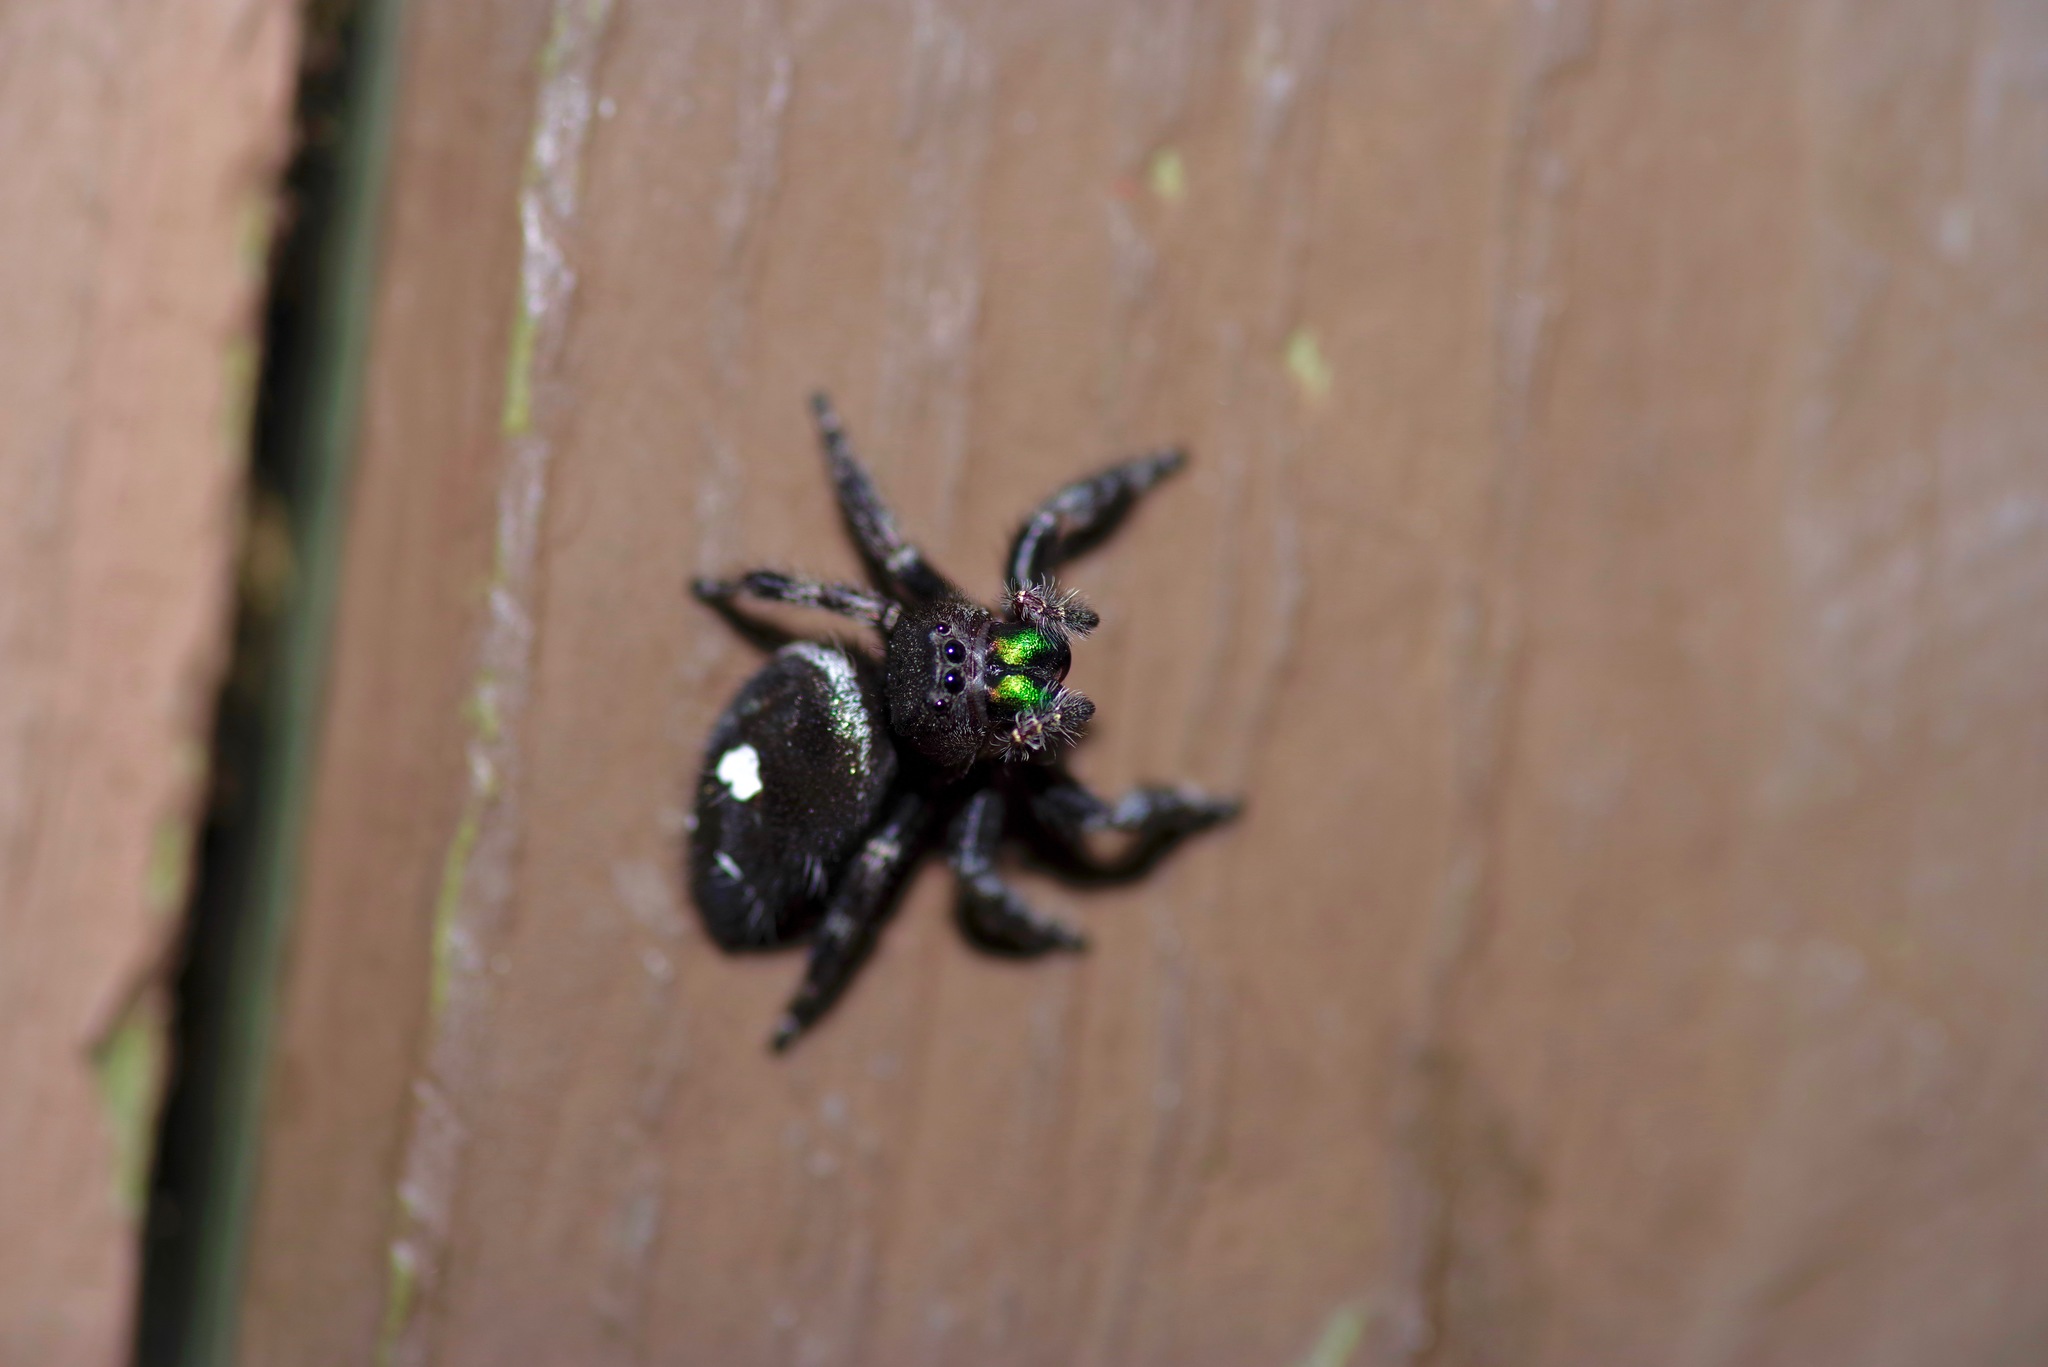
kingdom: Animalia
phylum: Arthropoda
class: Arachnida
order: Araneae
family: Salticidae
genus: Phidippus
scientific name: Phidippus audax
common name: Bold jumper
